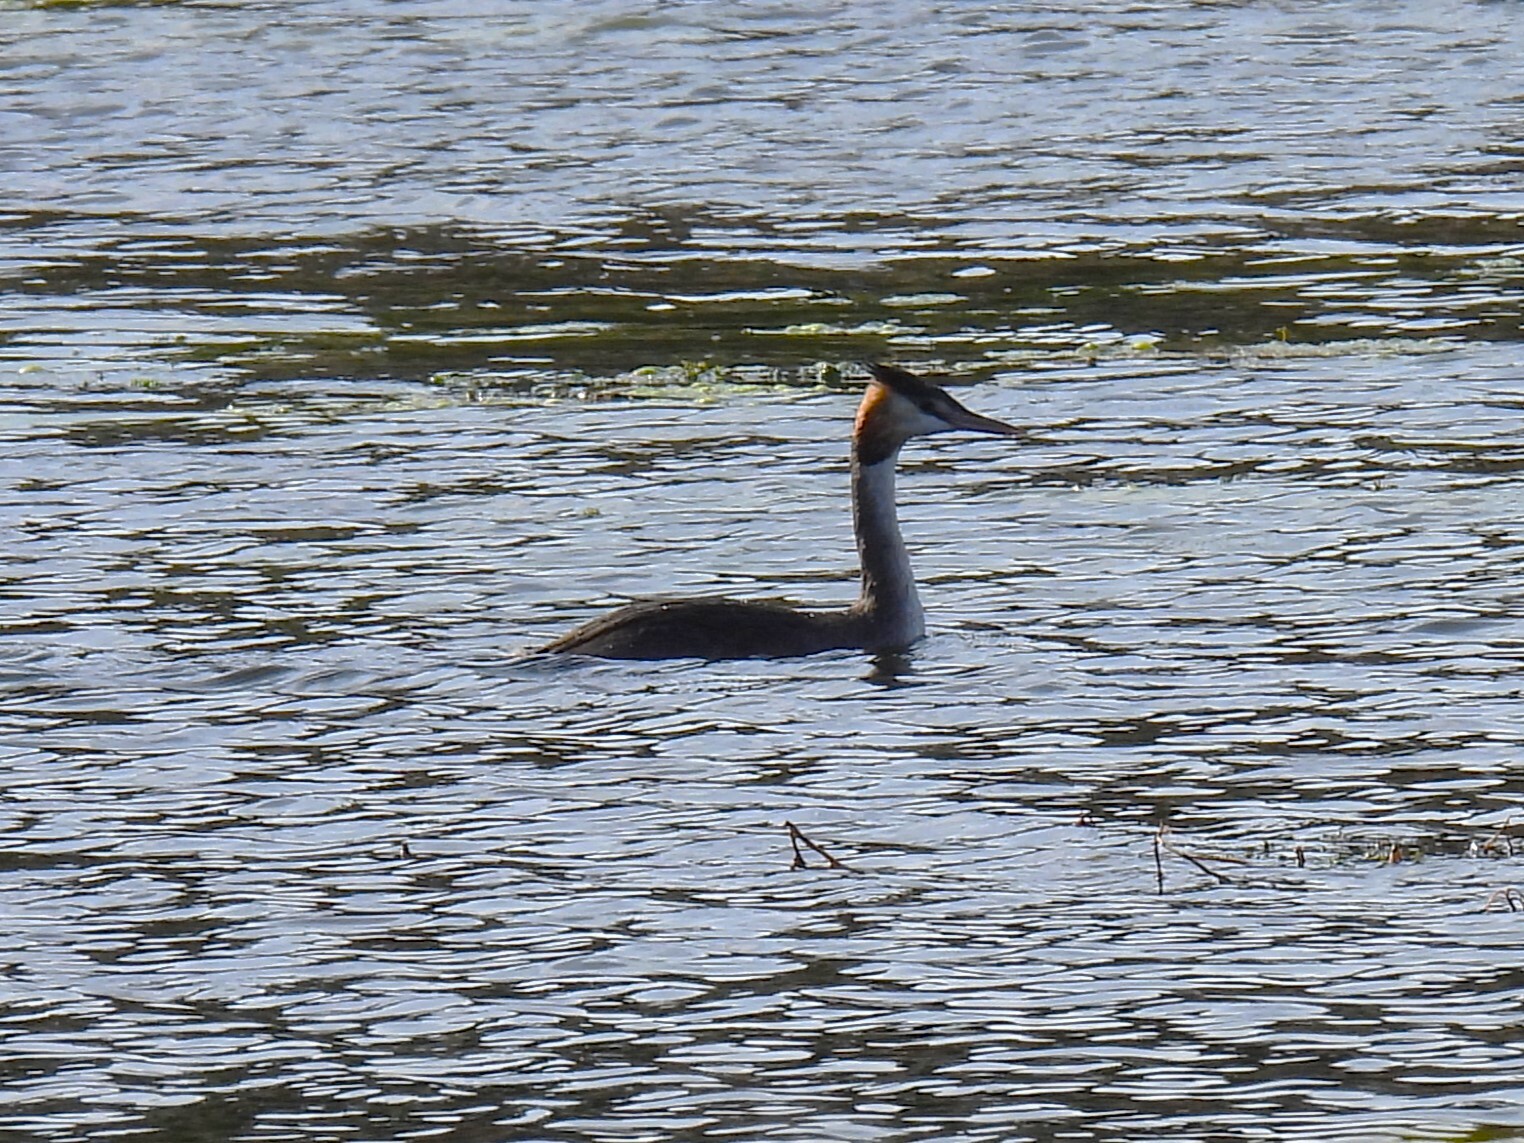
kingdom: Animalia
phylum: Chordata
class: Aves
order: Podicipediformes
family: Podicipedidae
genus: Podiceps
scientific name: Podiceps cristatus
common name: Great crested grebe
